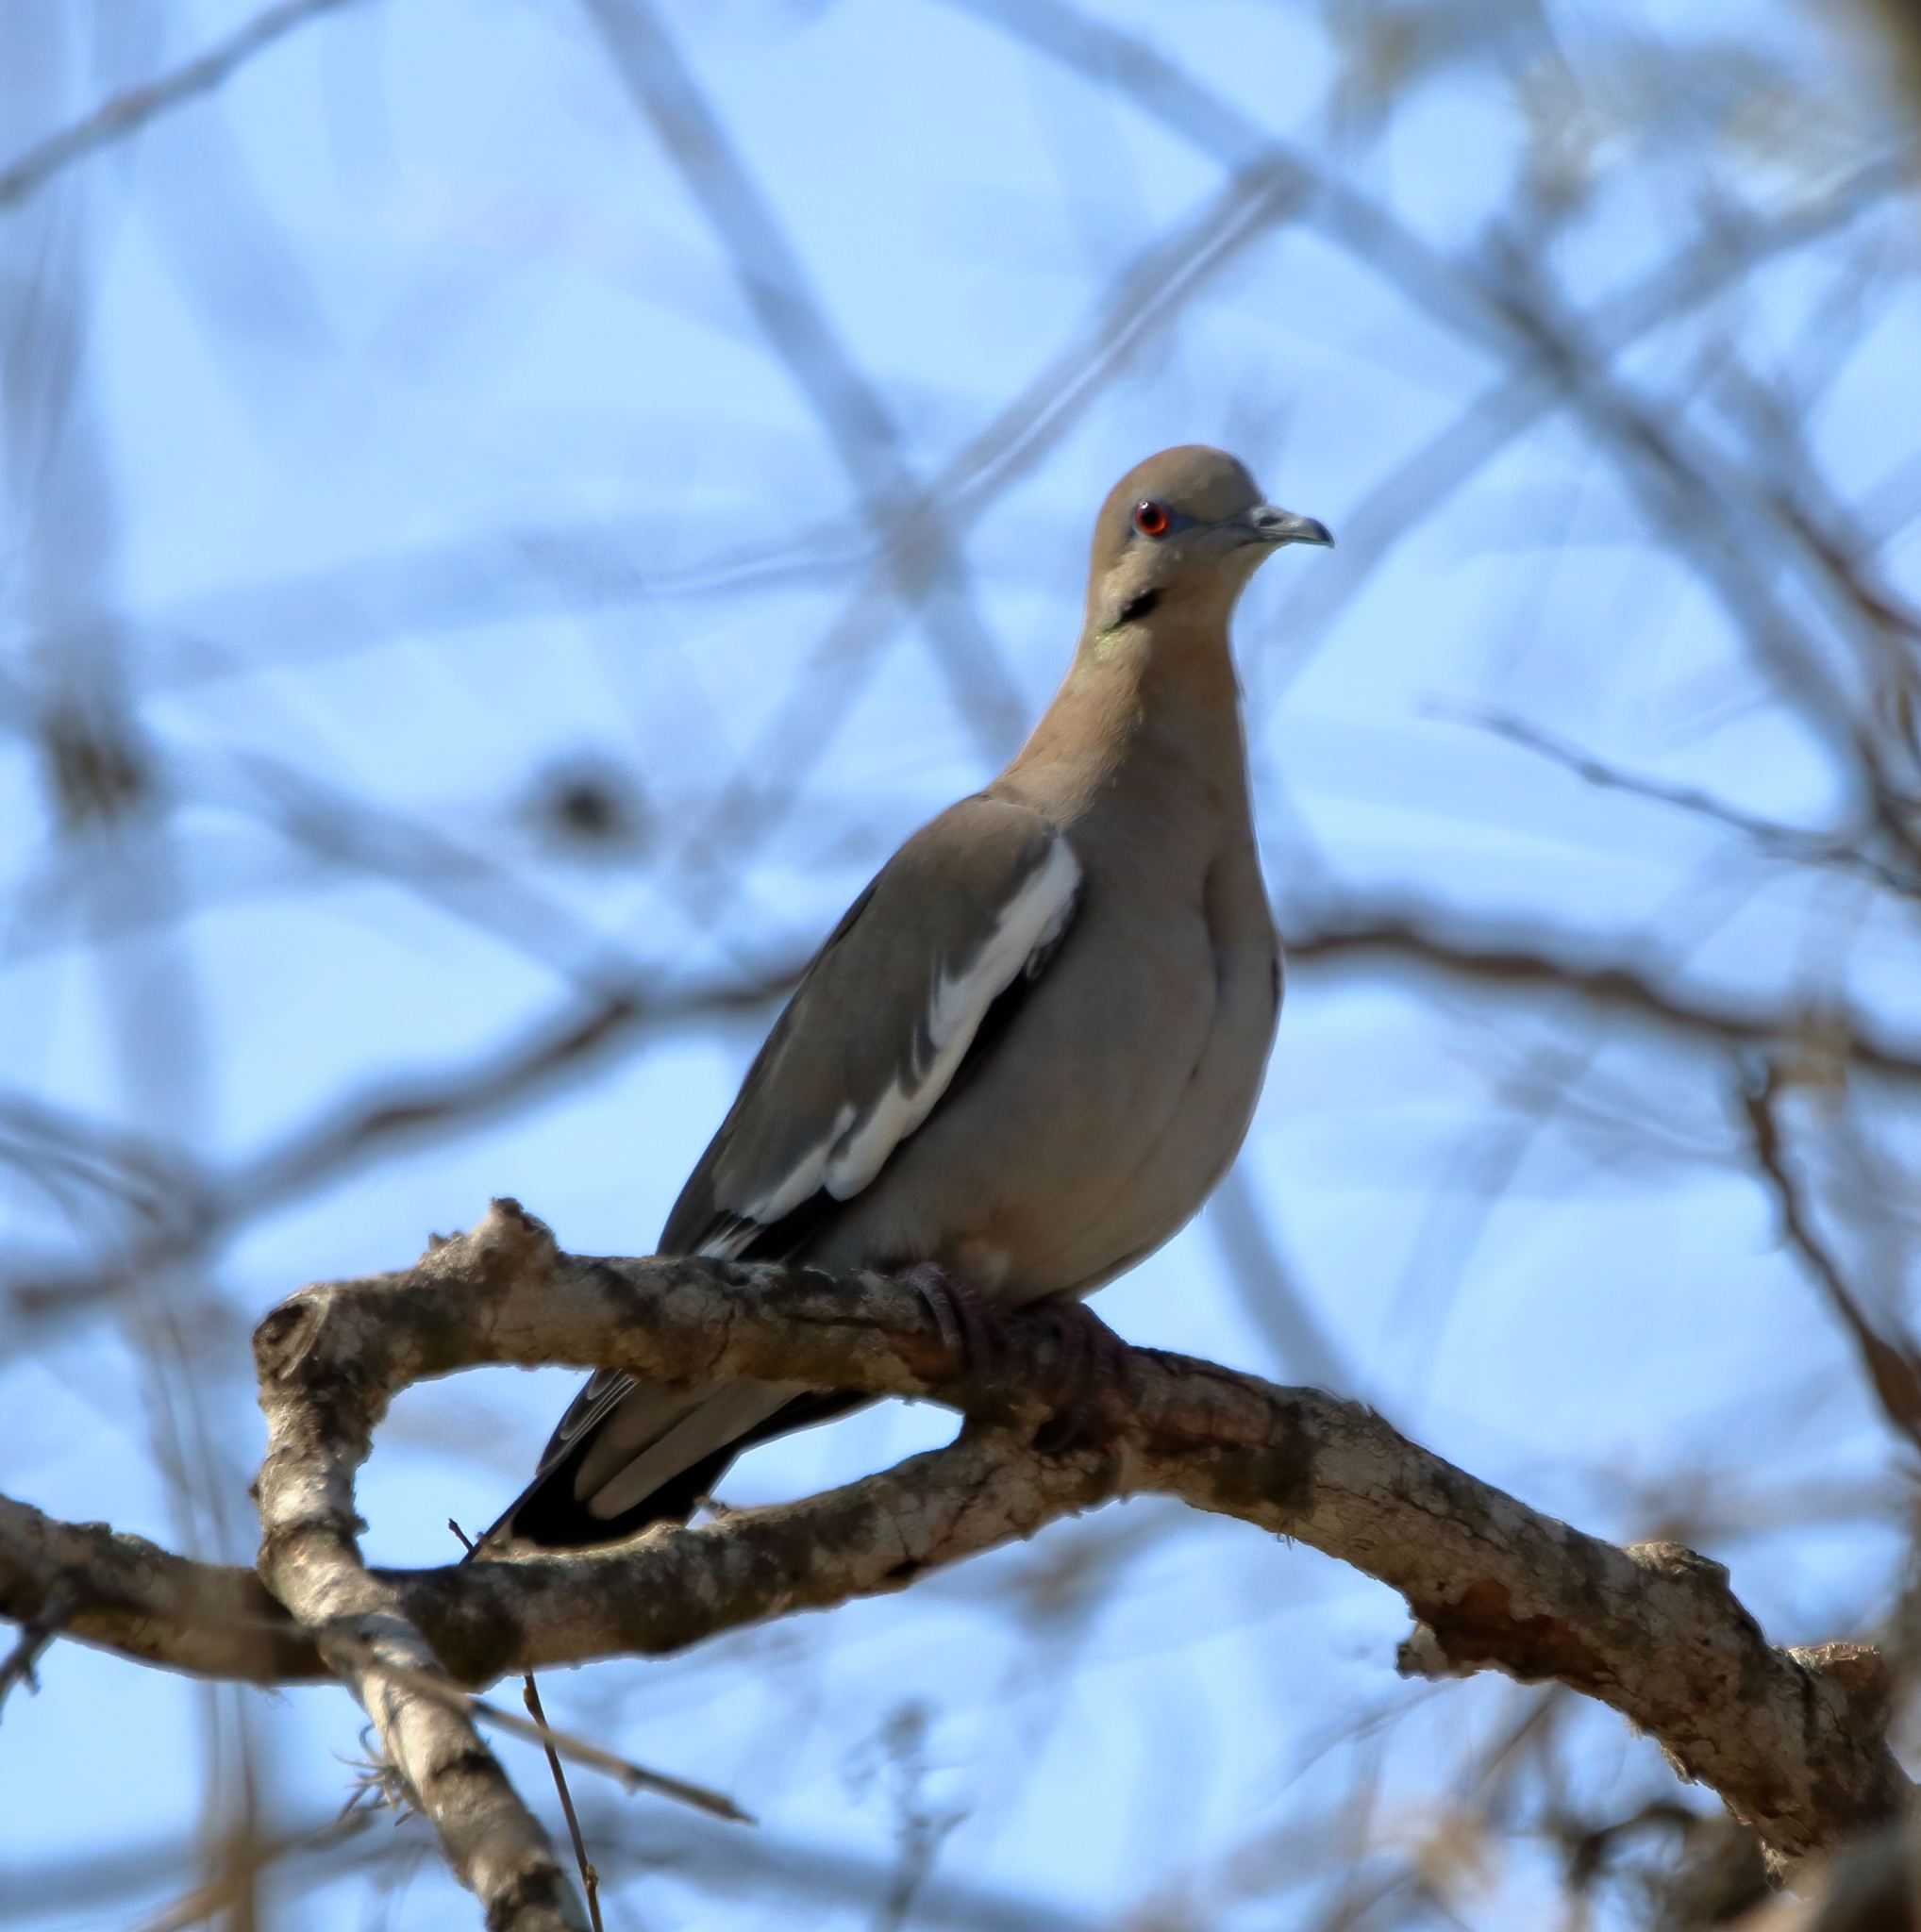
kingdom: Animalia
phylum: Chordata
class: Aves
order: Columbiformes
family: Columbidae
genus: Zenaida
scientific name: Zenaida asiatica
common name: White-winged dove
